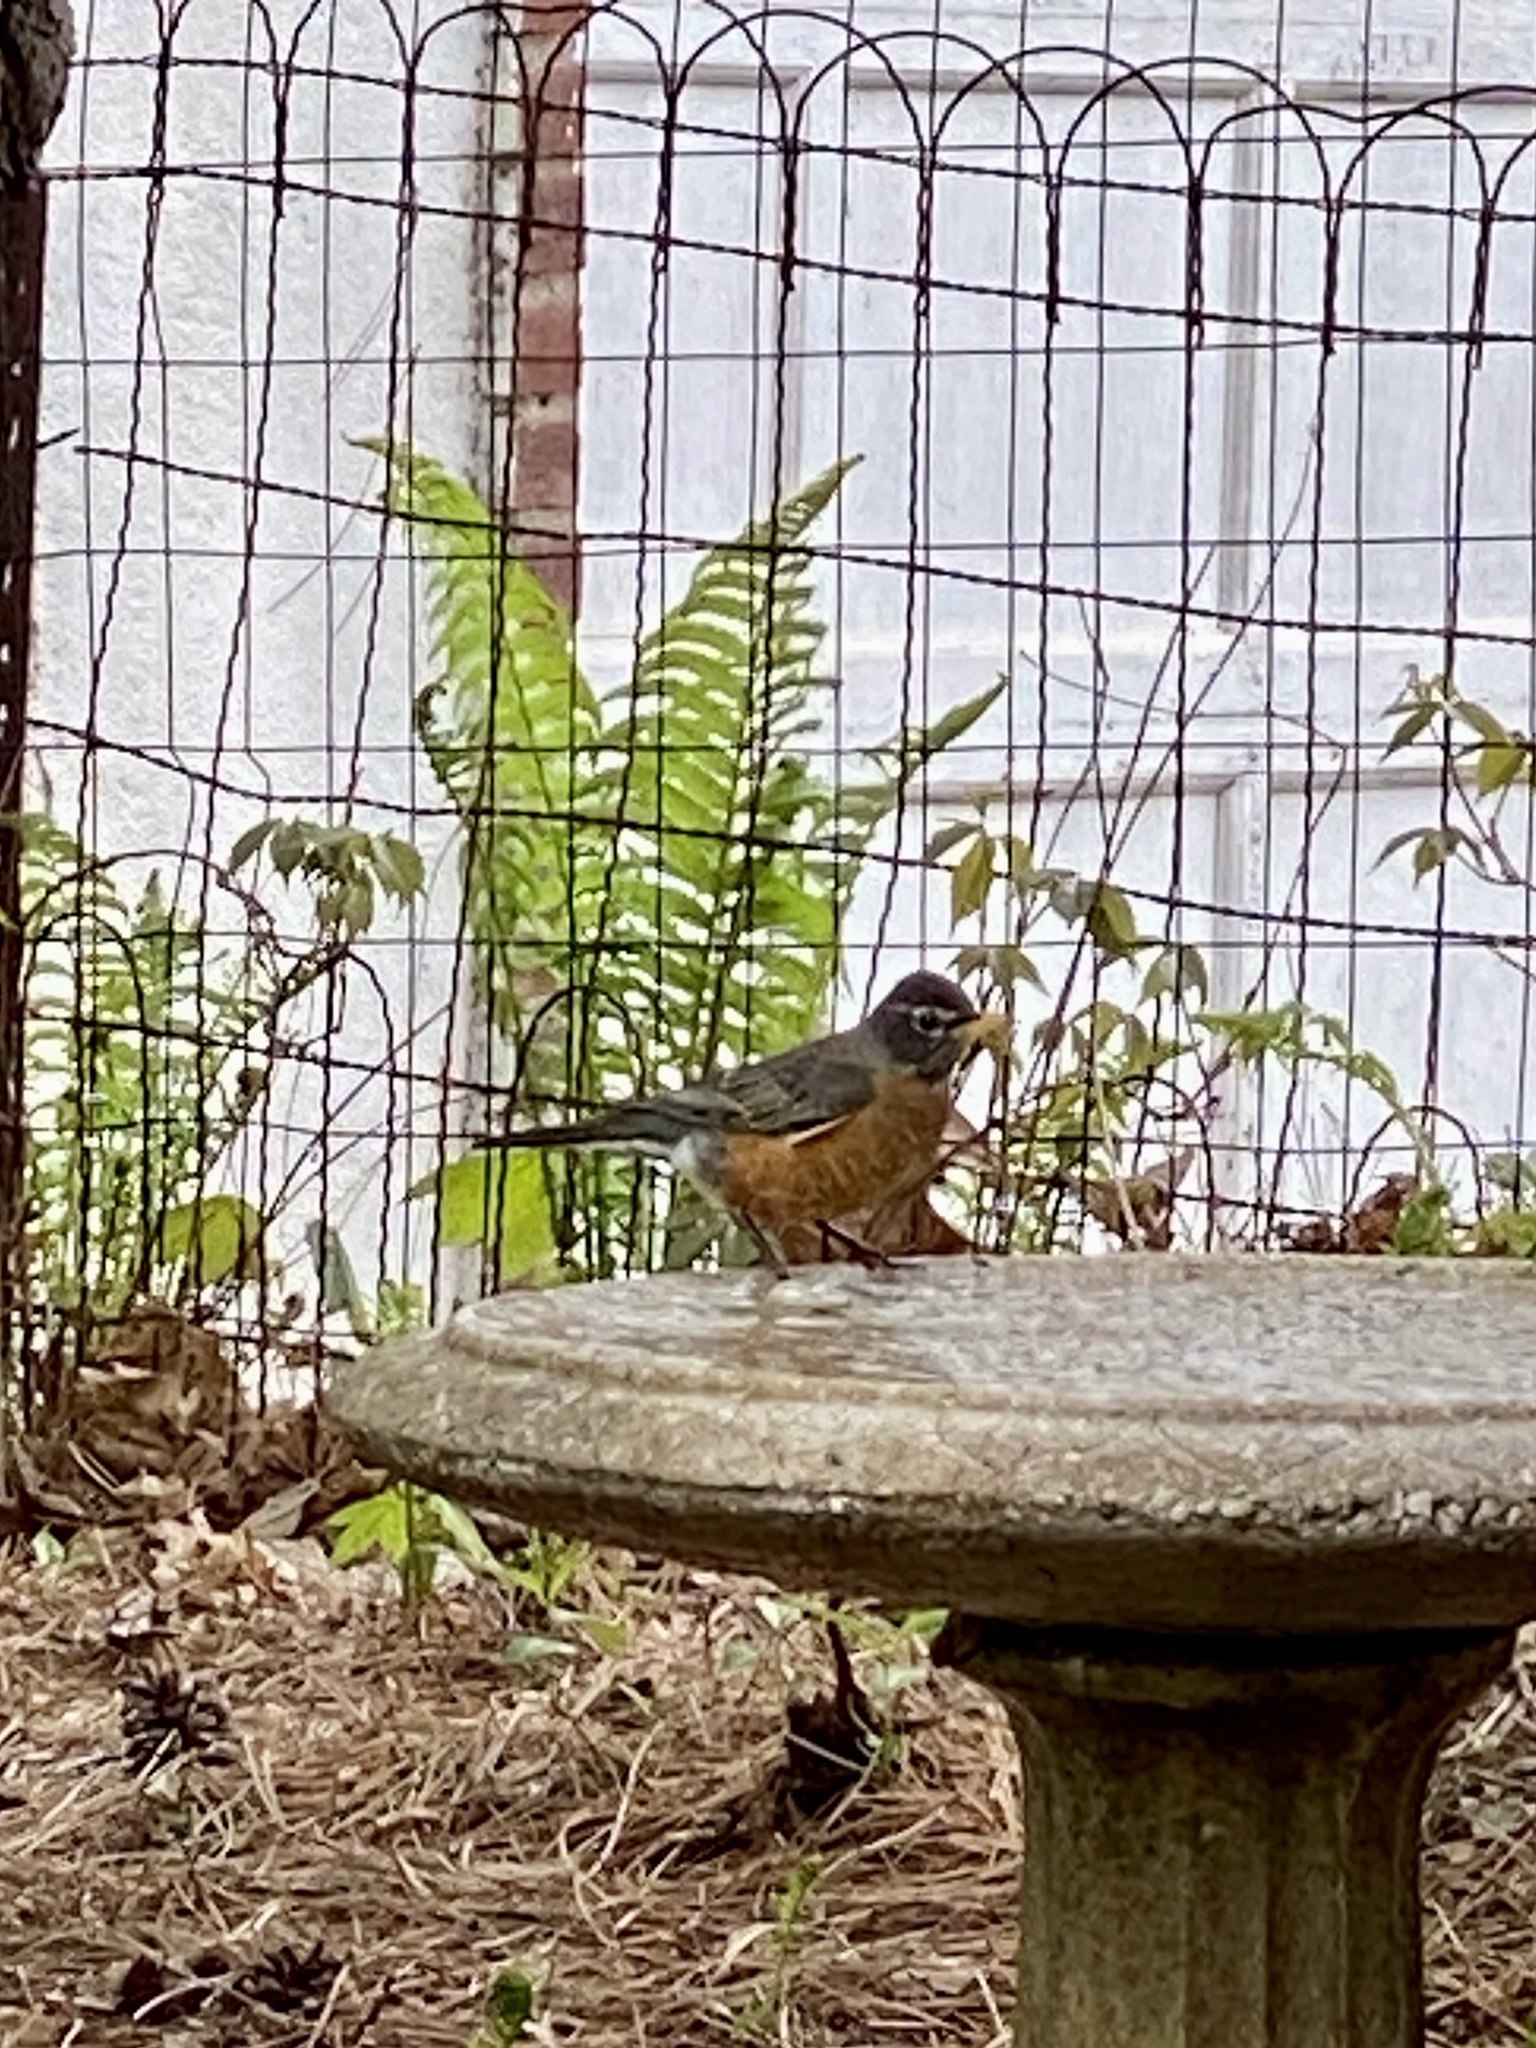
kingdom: Animalia
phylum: Chordata
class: Aves
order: Passeriformes
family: Turdidae
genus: Turdus
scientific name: Turdus migratorius
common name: American robin
